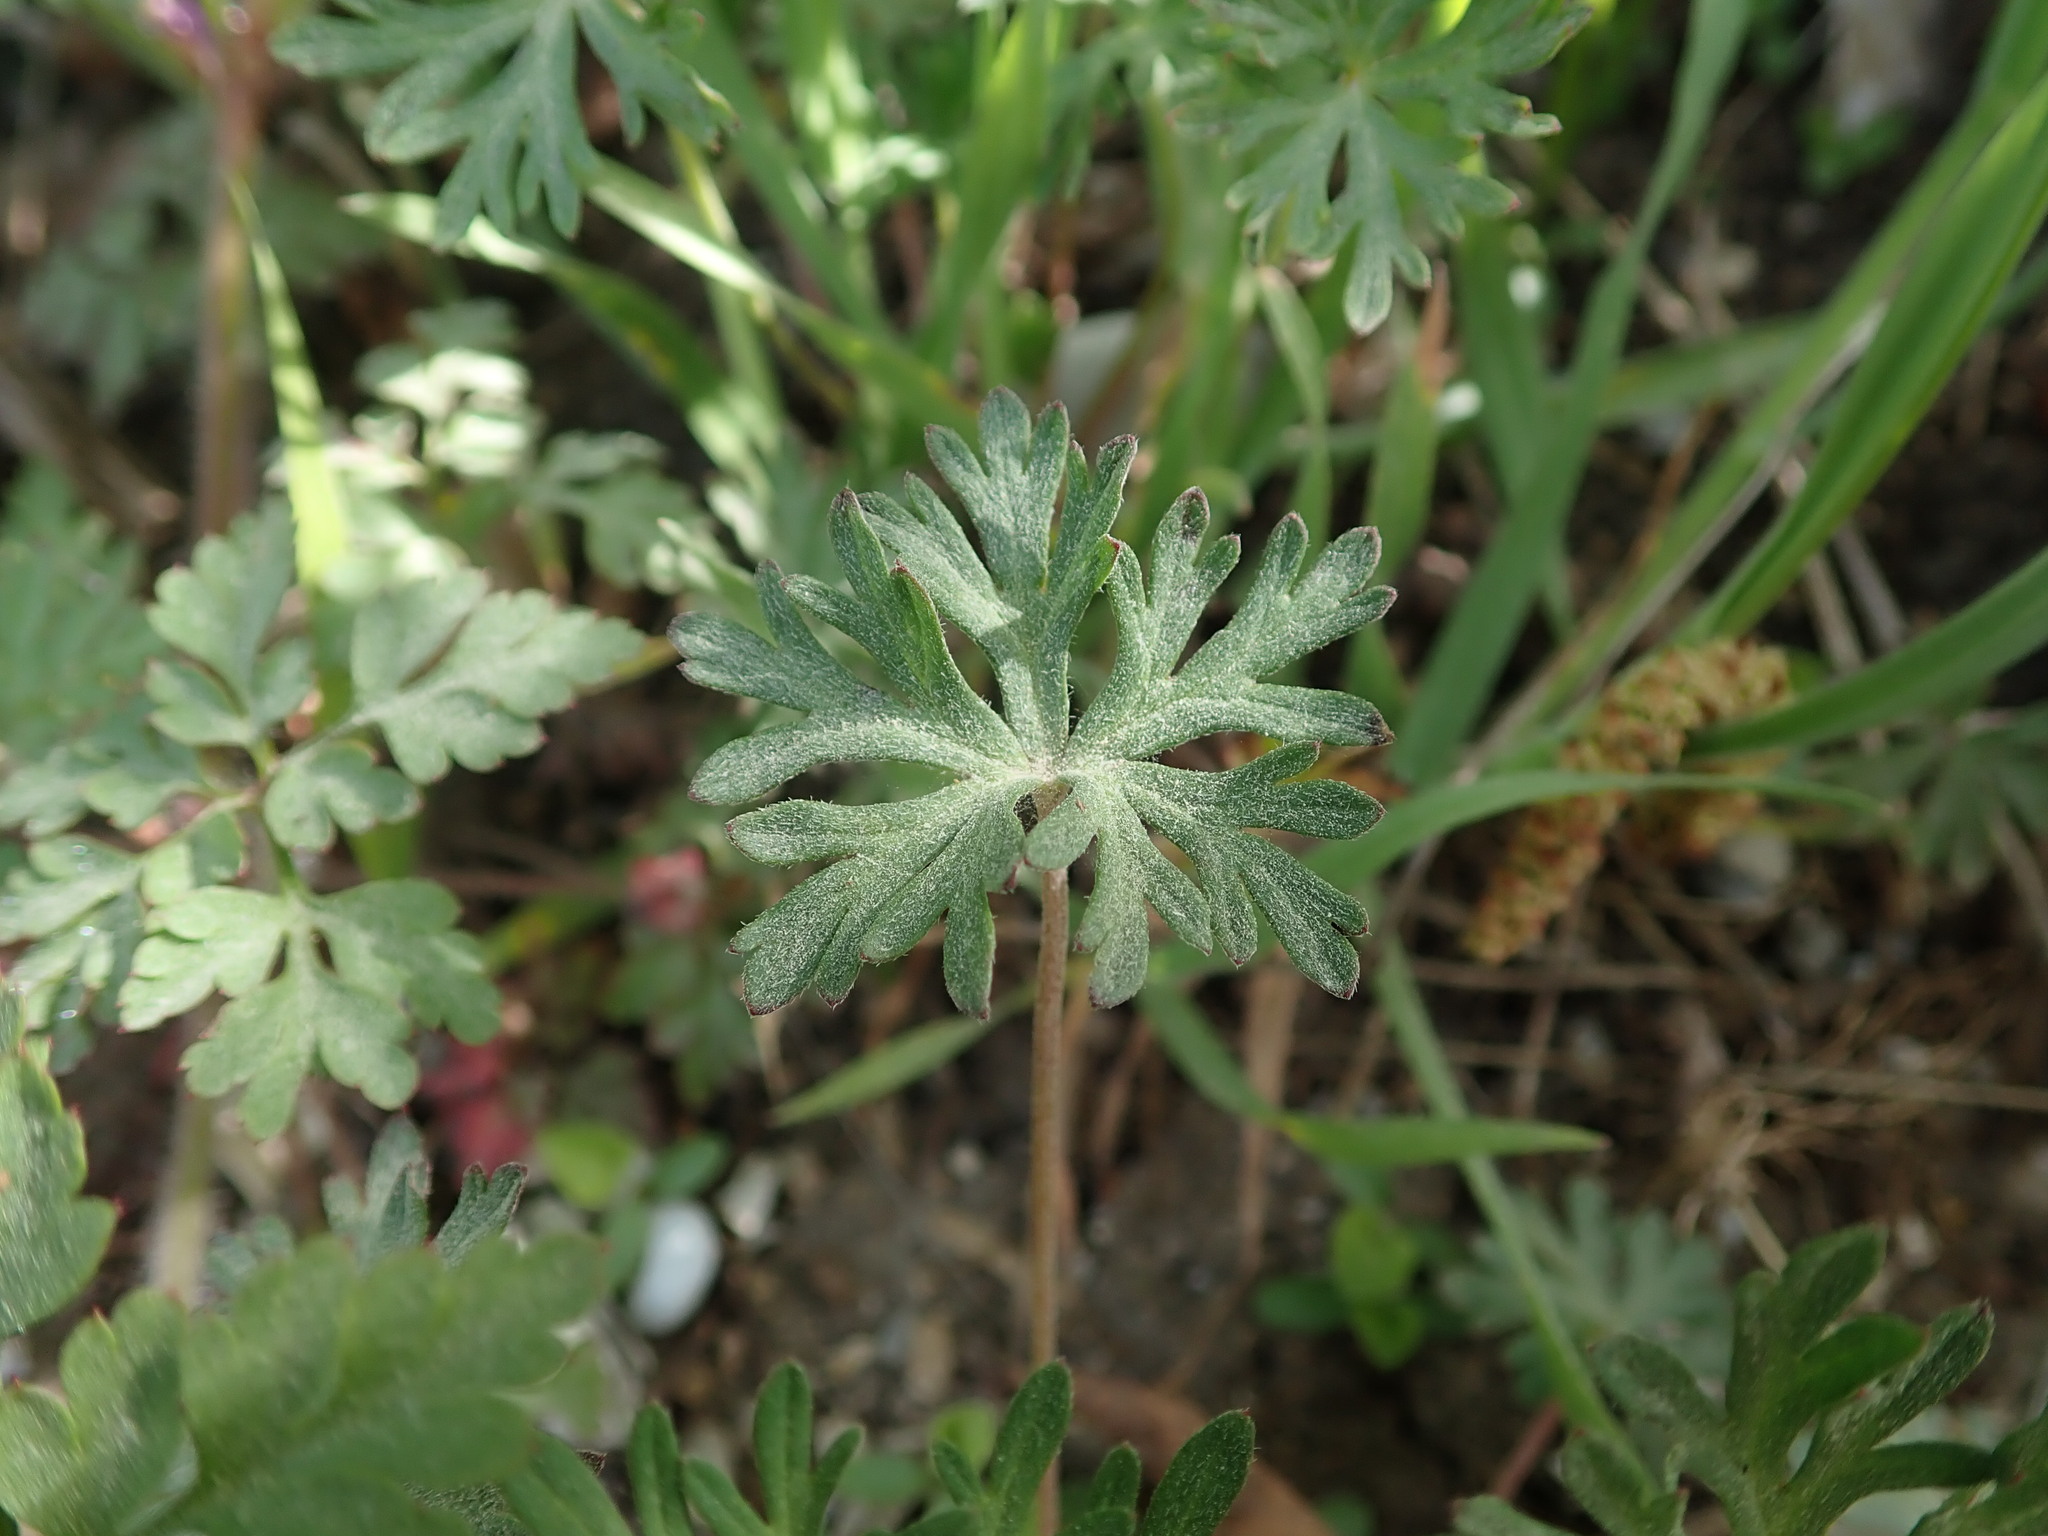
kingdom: Plantae
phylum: Tracheophyta
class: Magnoliopsida
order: Geraniales
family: Geraniaceae
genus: Geranium
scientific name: Geranium columbinum
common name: Long-stalked crane's-bill
